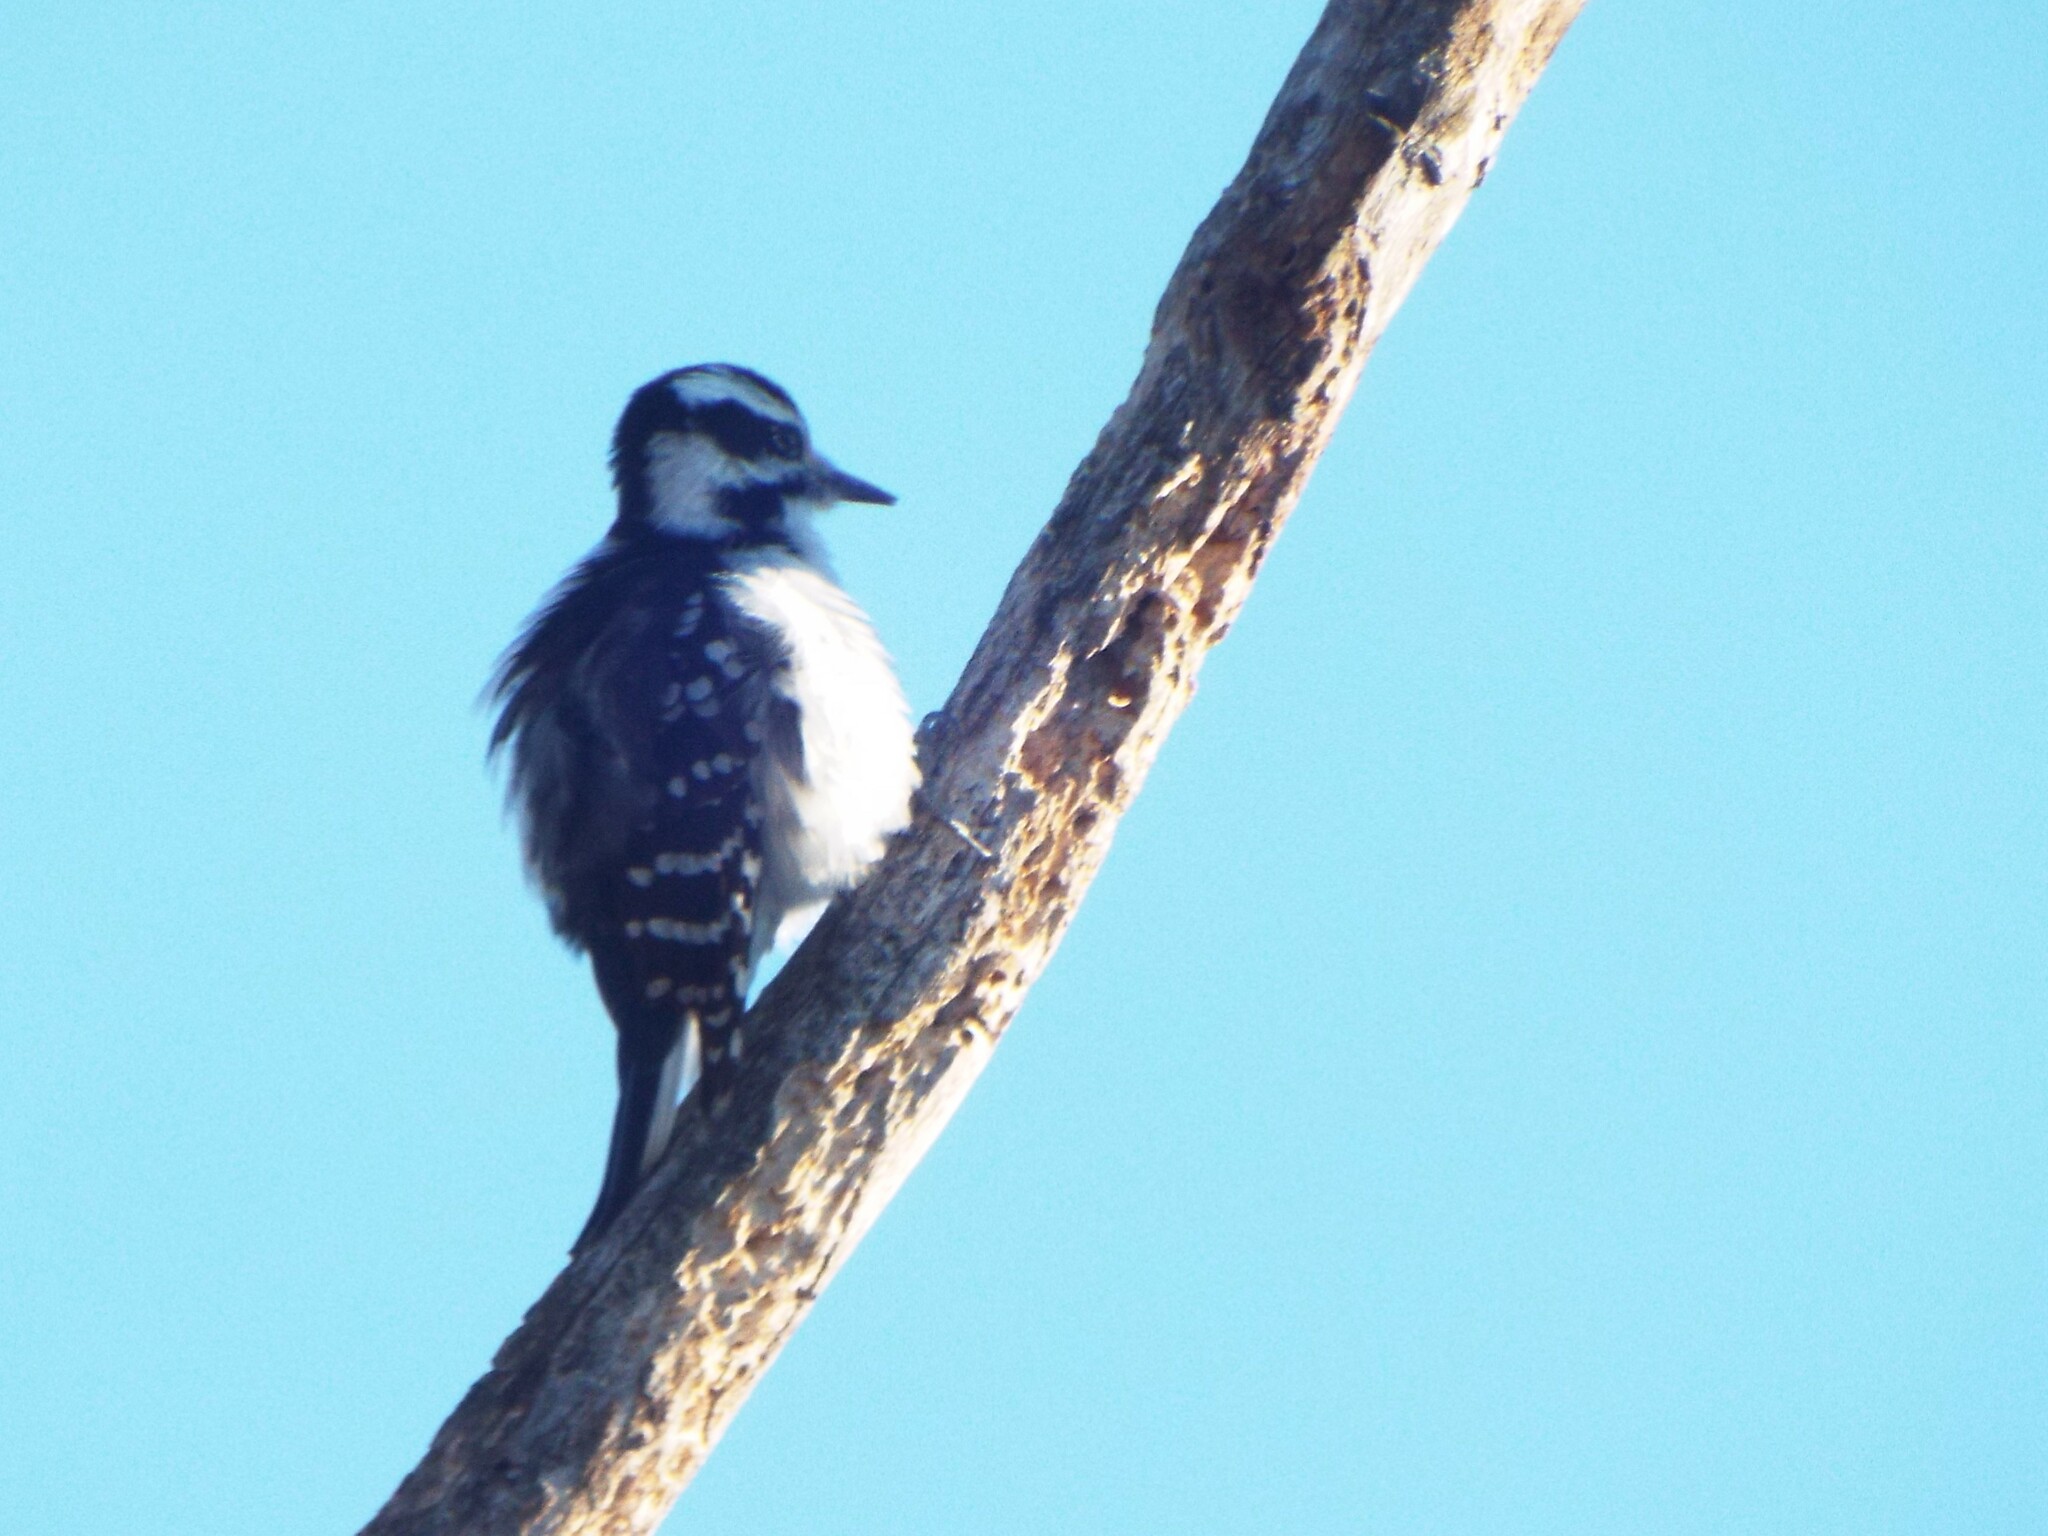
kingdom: Animalia
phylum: Chordata
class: Aves
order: Piciformes
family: Picidae
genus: Leuconotopicus
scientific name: Leuconotopicus villosus
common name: Hairy woodpecker
